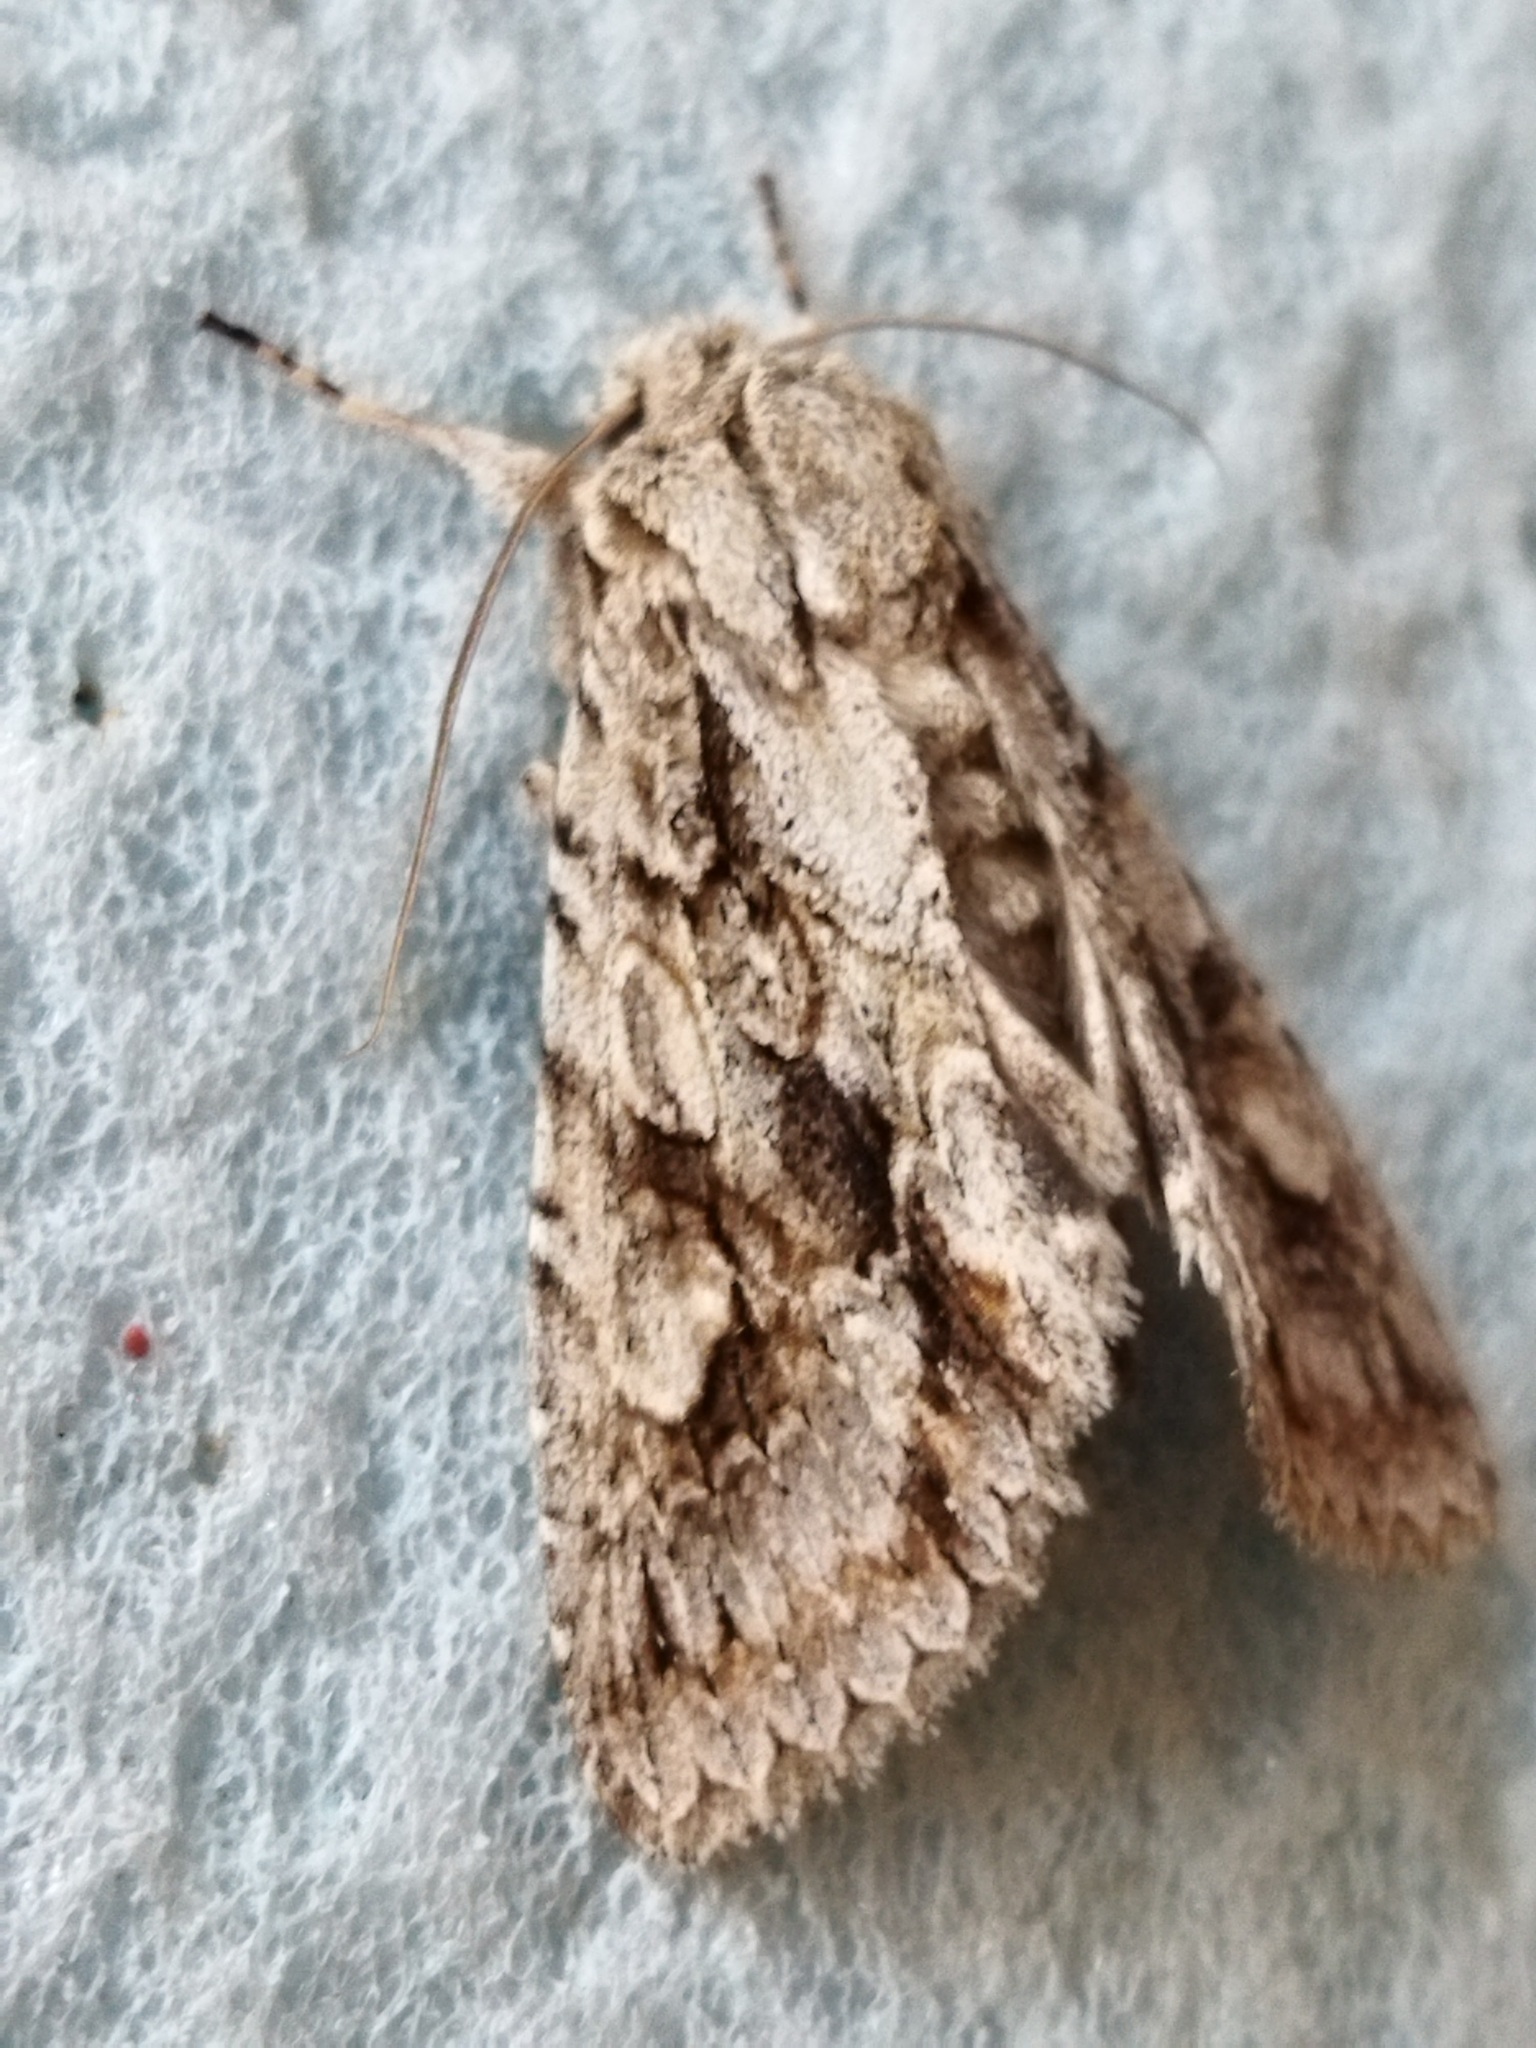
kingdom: Animalia
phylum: Arthropoda
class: Insecta
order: Lepidoptera
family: Noctuidae
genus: Meganephria
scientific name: Meganephria bimaculosa
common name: Double-spot brocade
